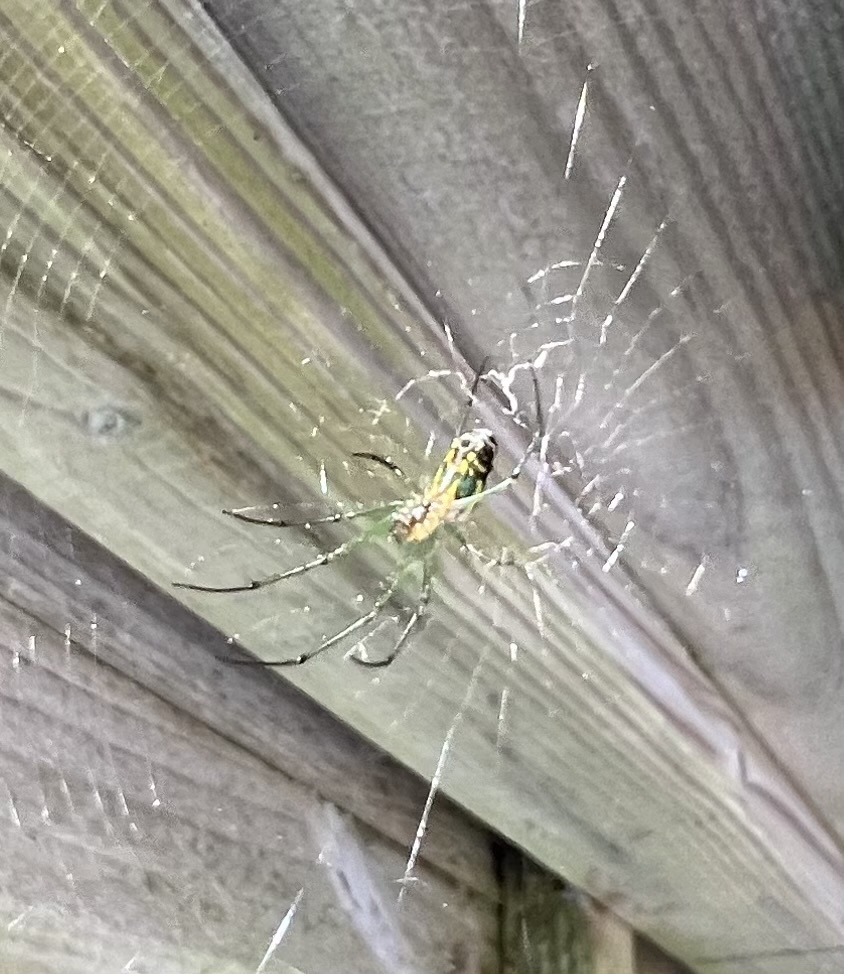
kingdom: Animalia
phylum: Arthropoda
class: Arachnida
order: Araneae
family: Tetragnathidae
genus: Leucauge
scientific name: Leucauge venusta
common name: Longjawed orb weavers
